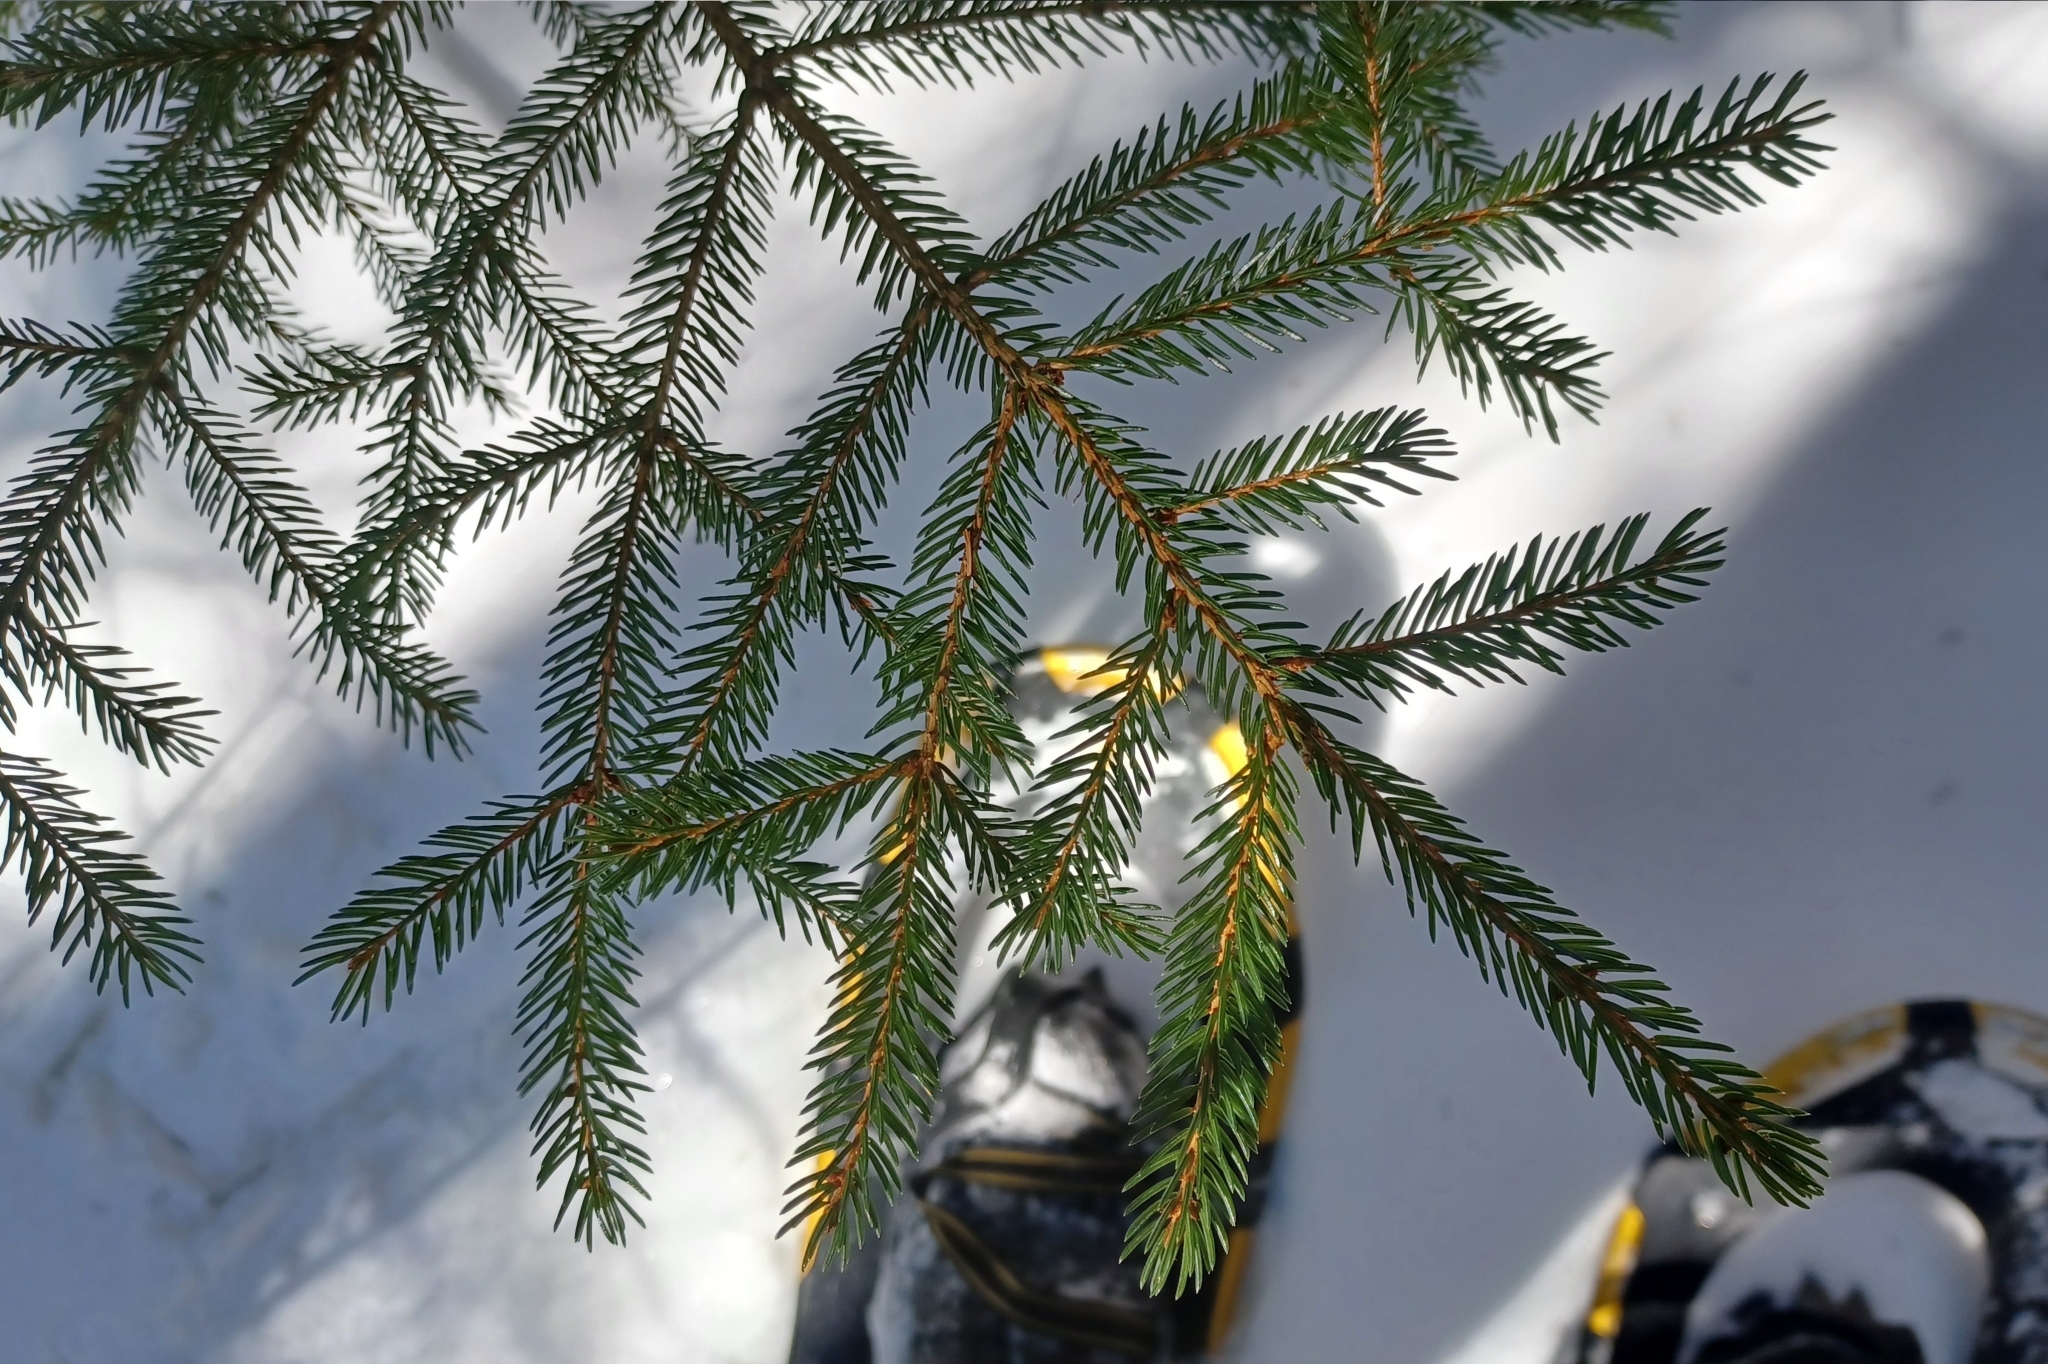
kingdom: Plantae
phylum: Tracheophyta
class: Pinopsida
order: Pinales
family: Pinaceae
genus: Picea
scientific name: Picea rubens
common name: Red spruce
